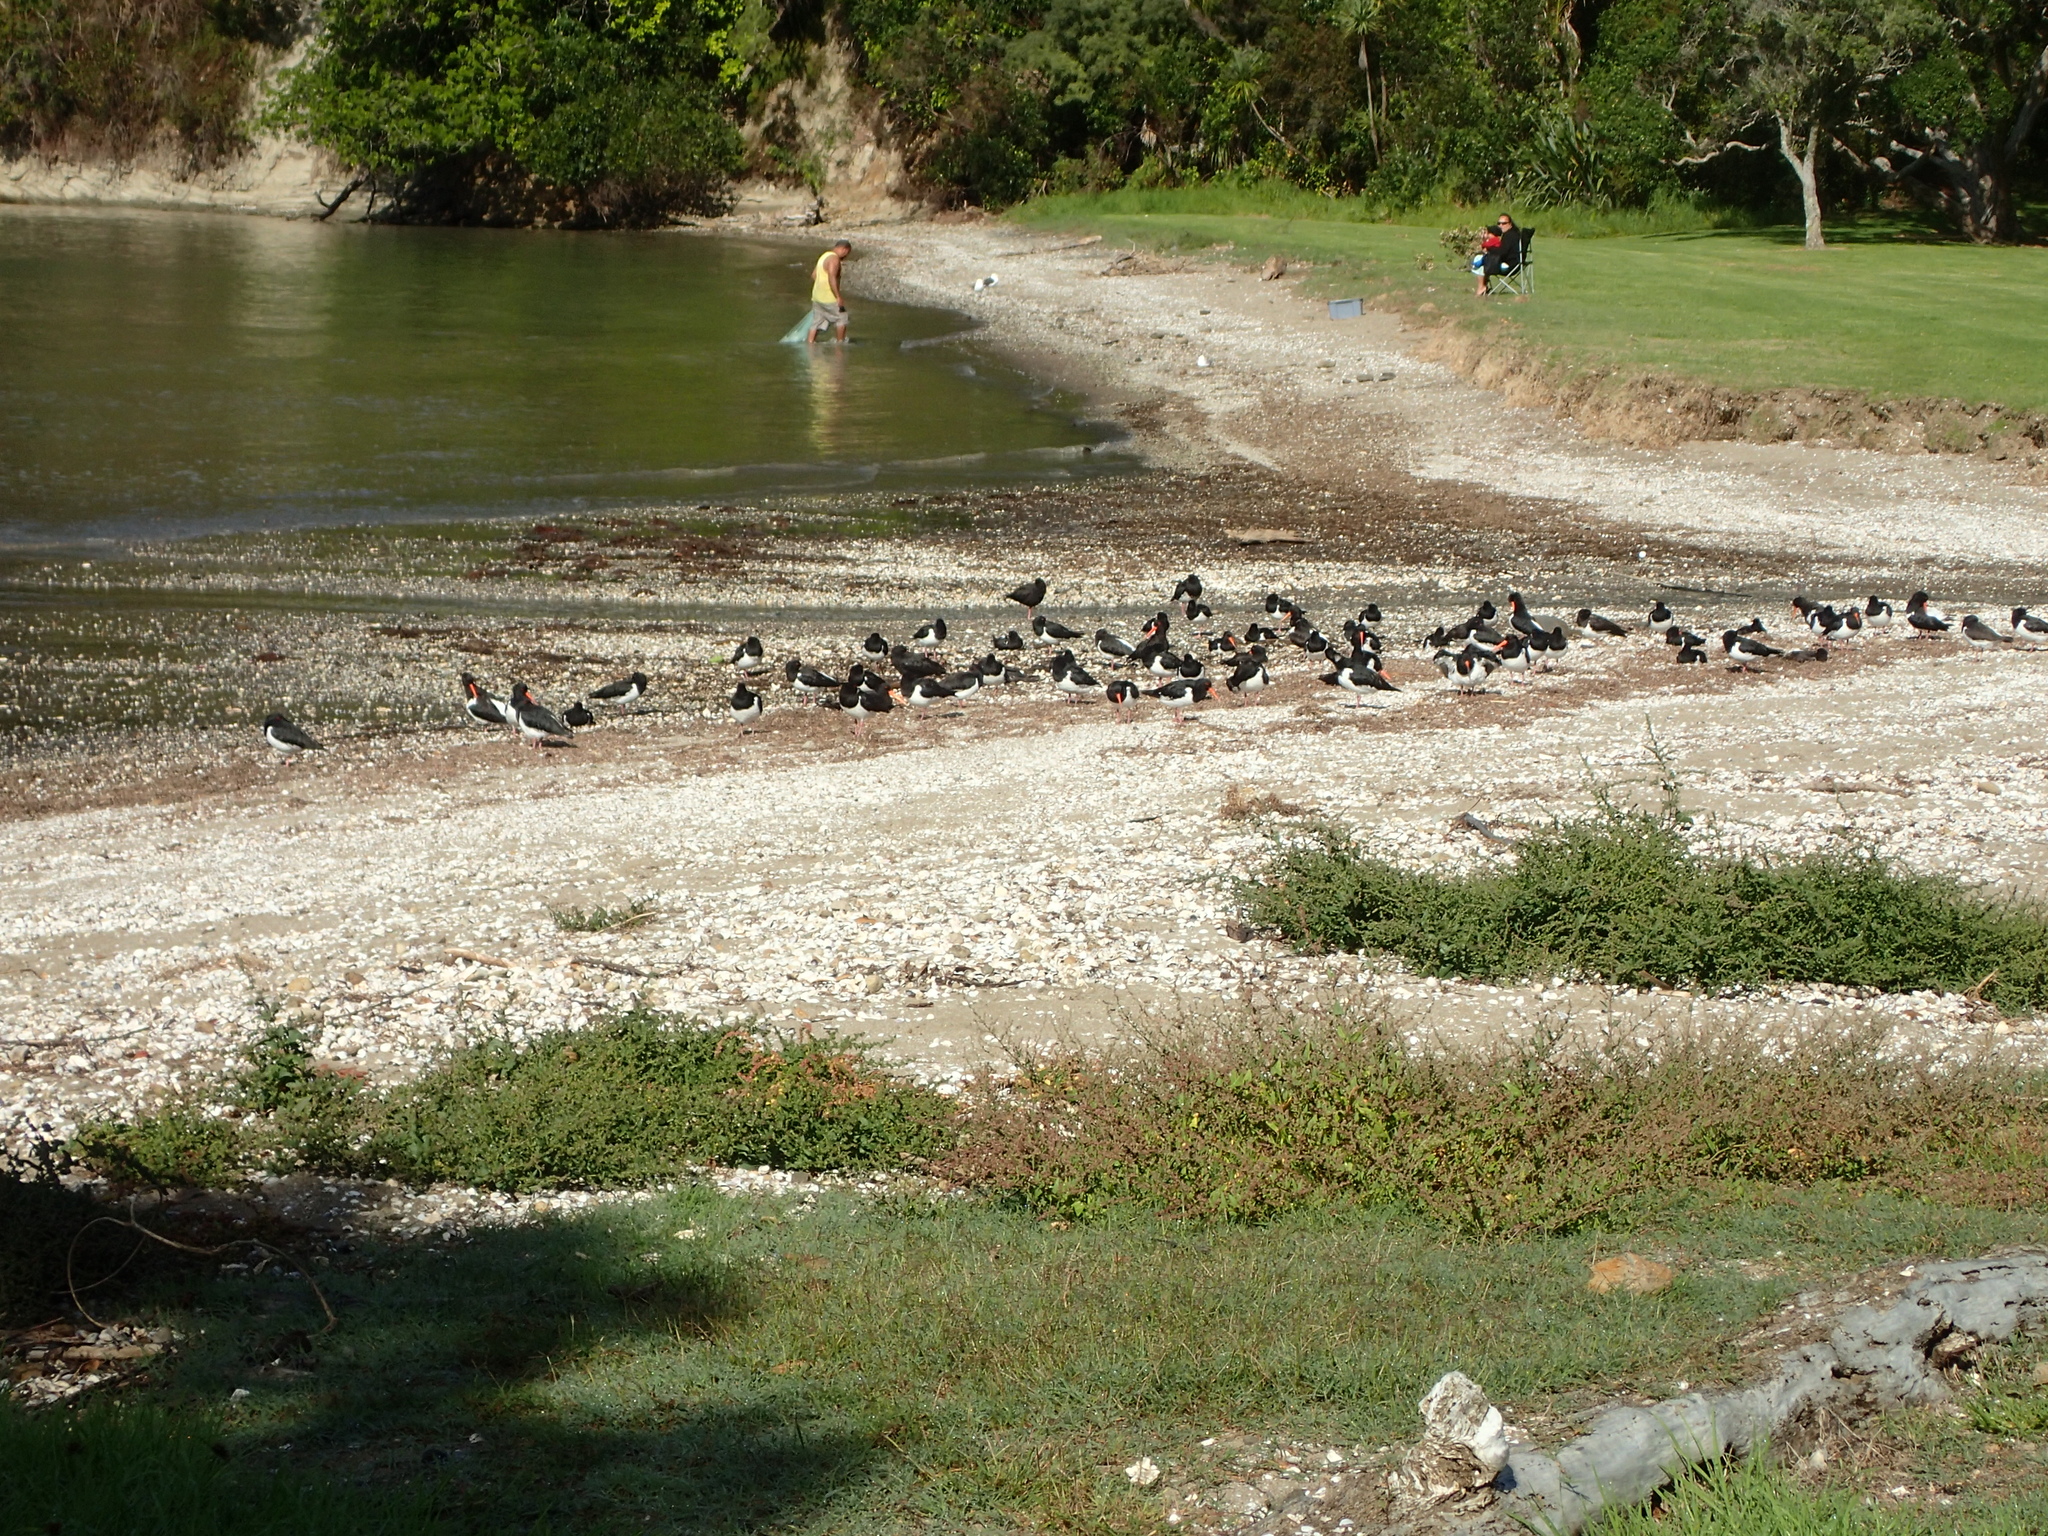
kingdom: Animalia
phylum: Chordata
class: Aves
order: Charadriiformes
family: Haematopodidae
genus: Haematopus
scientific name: Haematopus finschi
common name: South island oystercatcher
